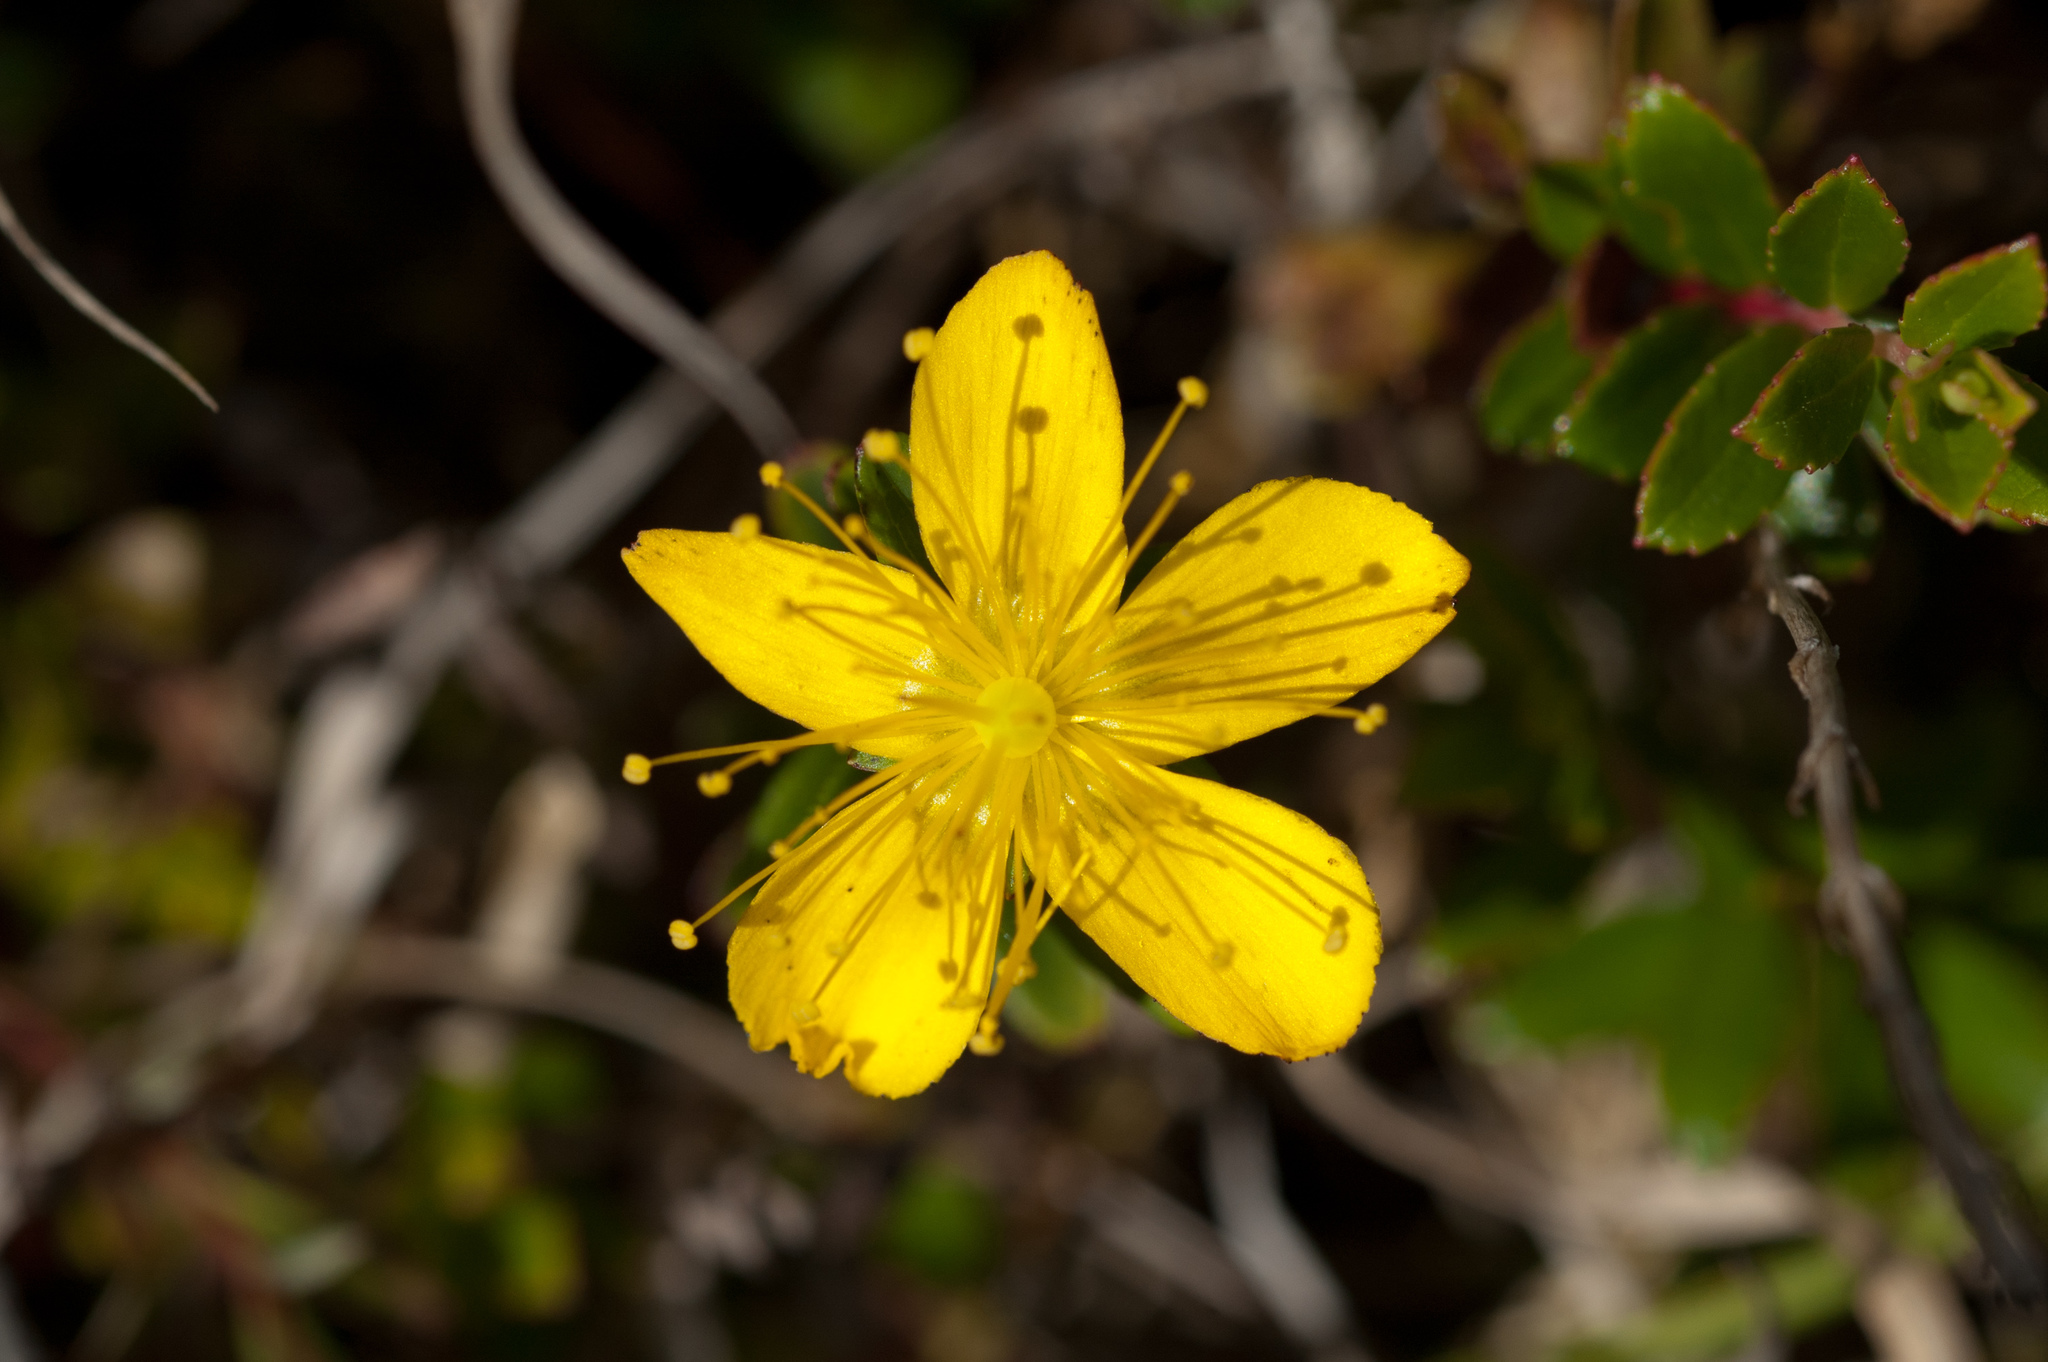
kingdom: Plantae
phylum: Tracheophyta
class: Magnoliopsida
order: Malpighiales
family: Hypericaceae
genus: Hypericum
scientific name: Hypericum nagasawae
